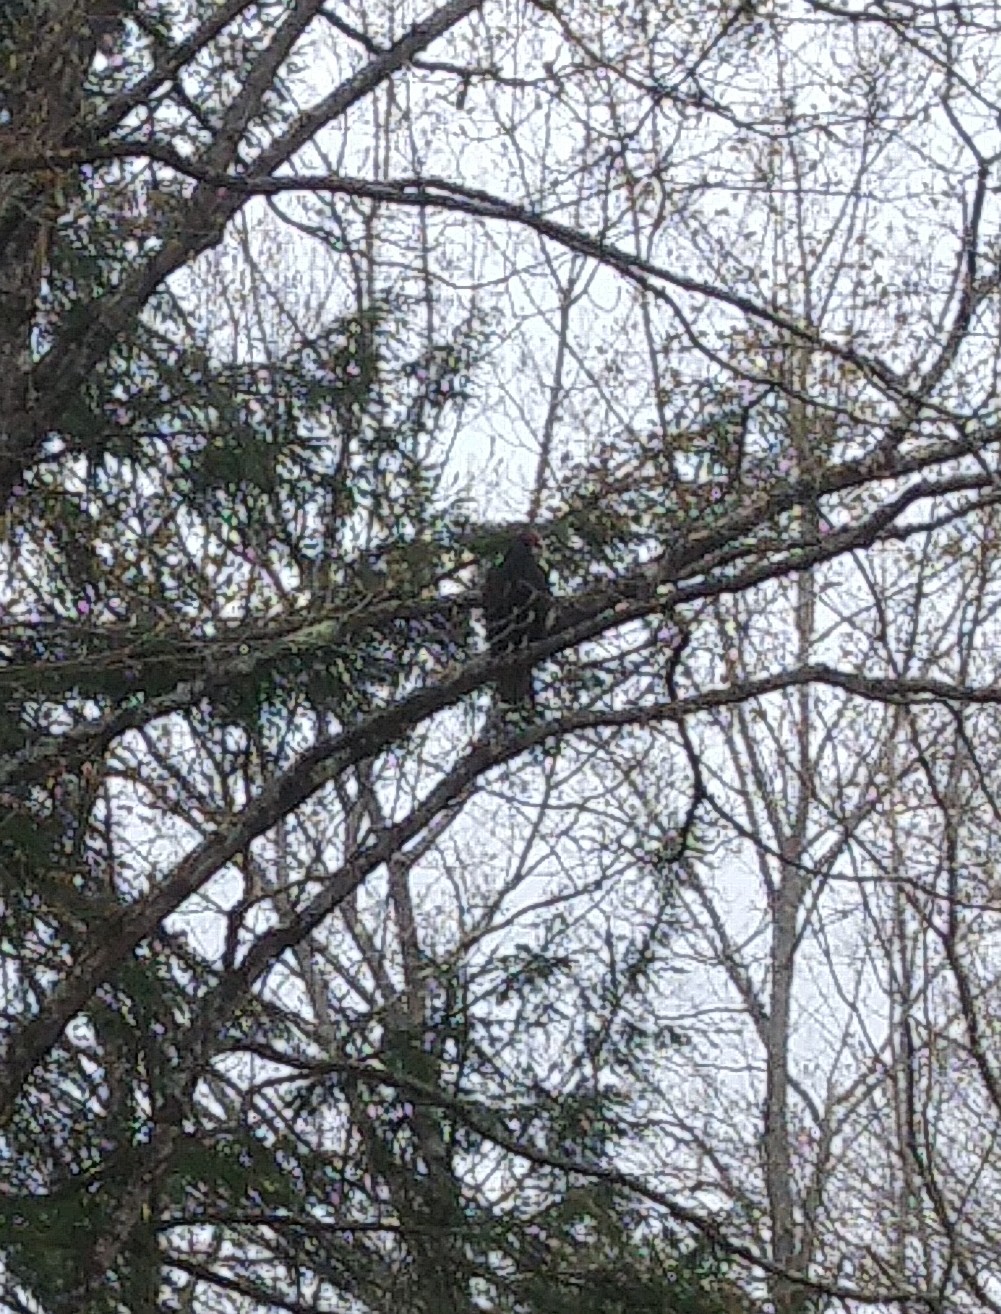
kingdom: Animalia
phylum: Chordata
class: Aves
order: Accipitriformes
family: Cathartidae
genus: Cathartes
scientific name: Cathartes aura
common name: Turkey vulture
